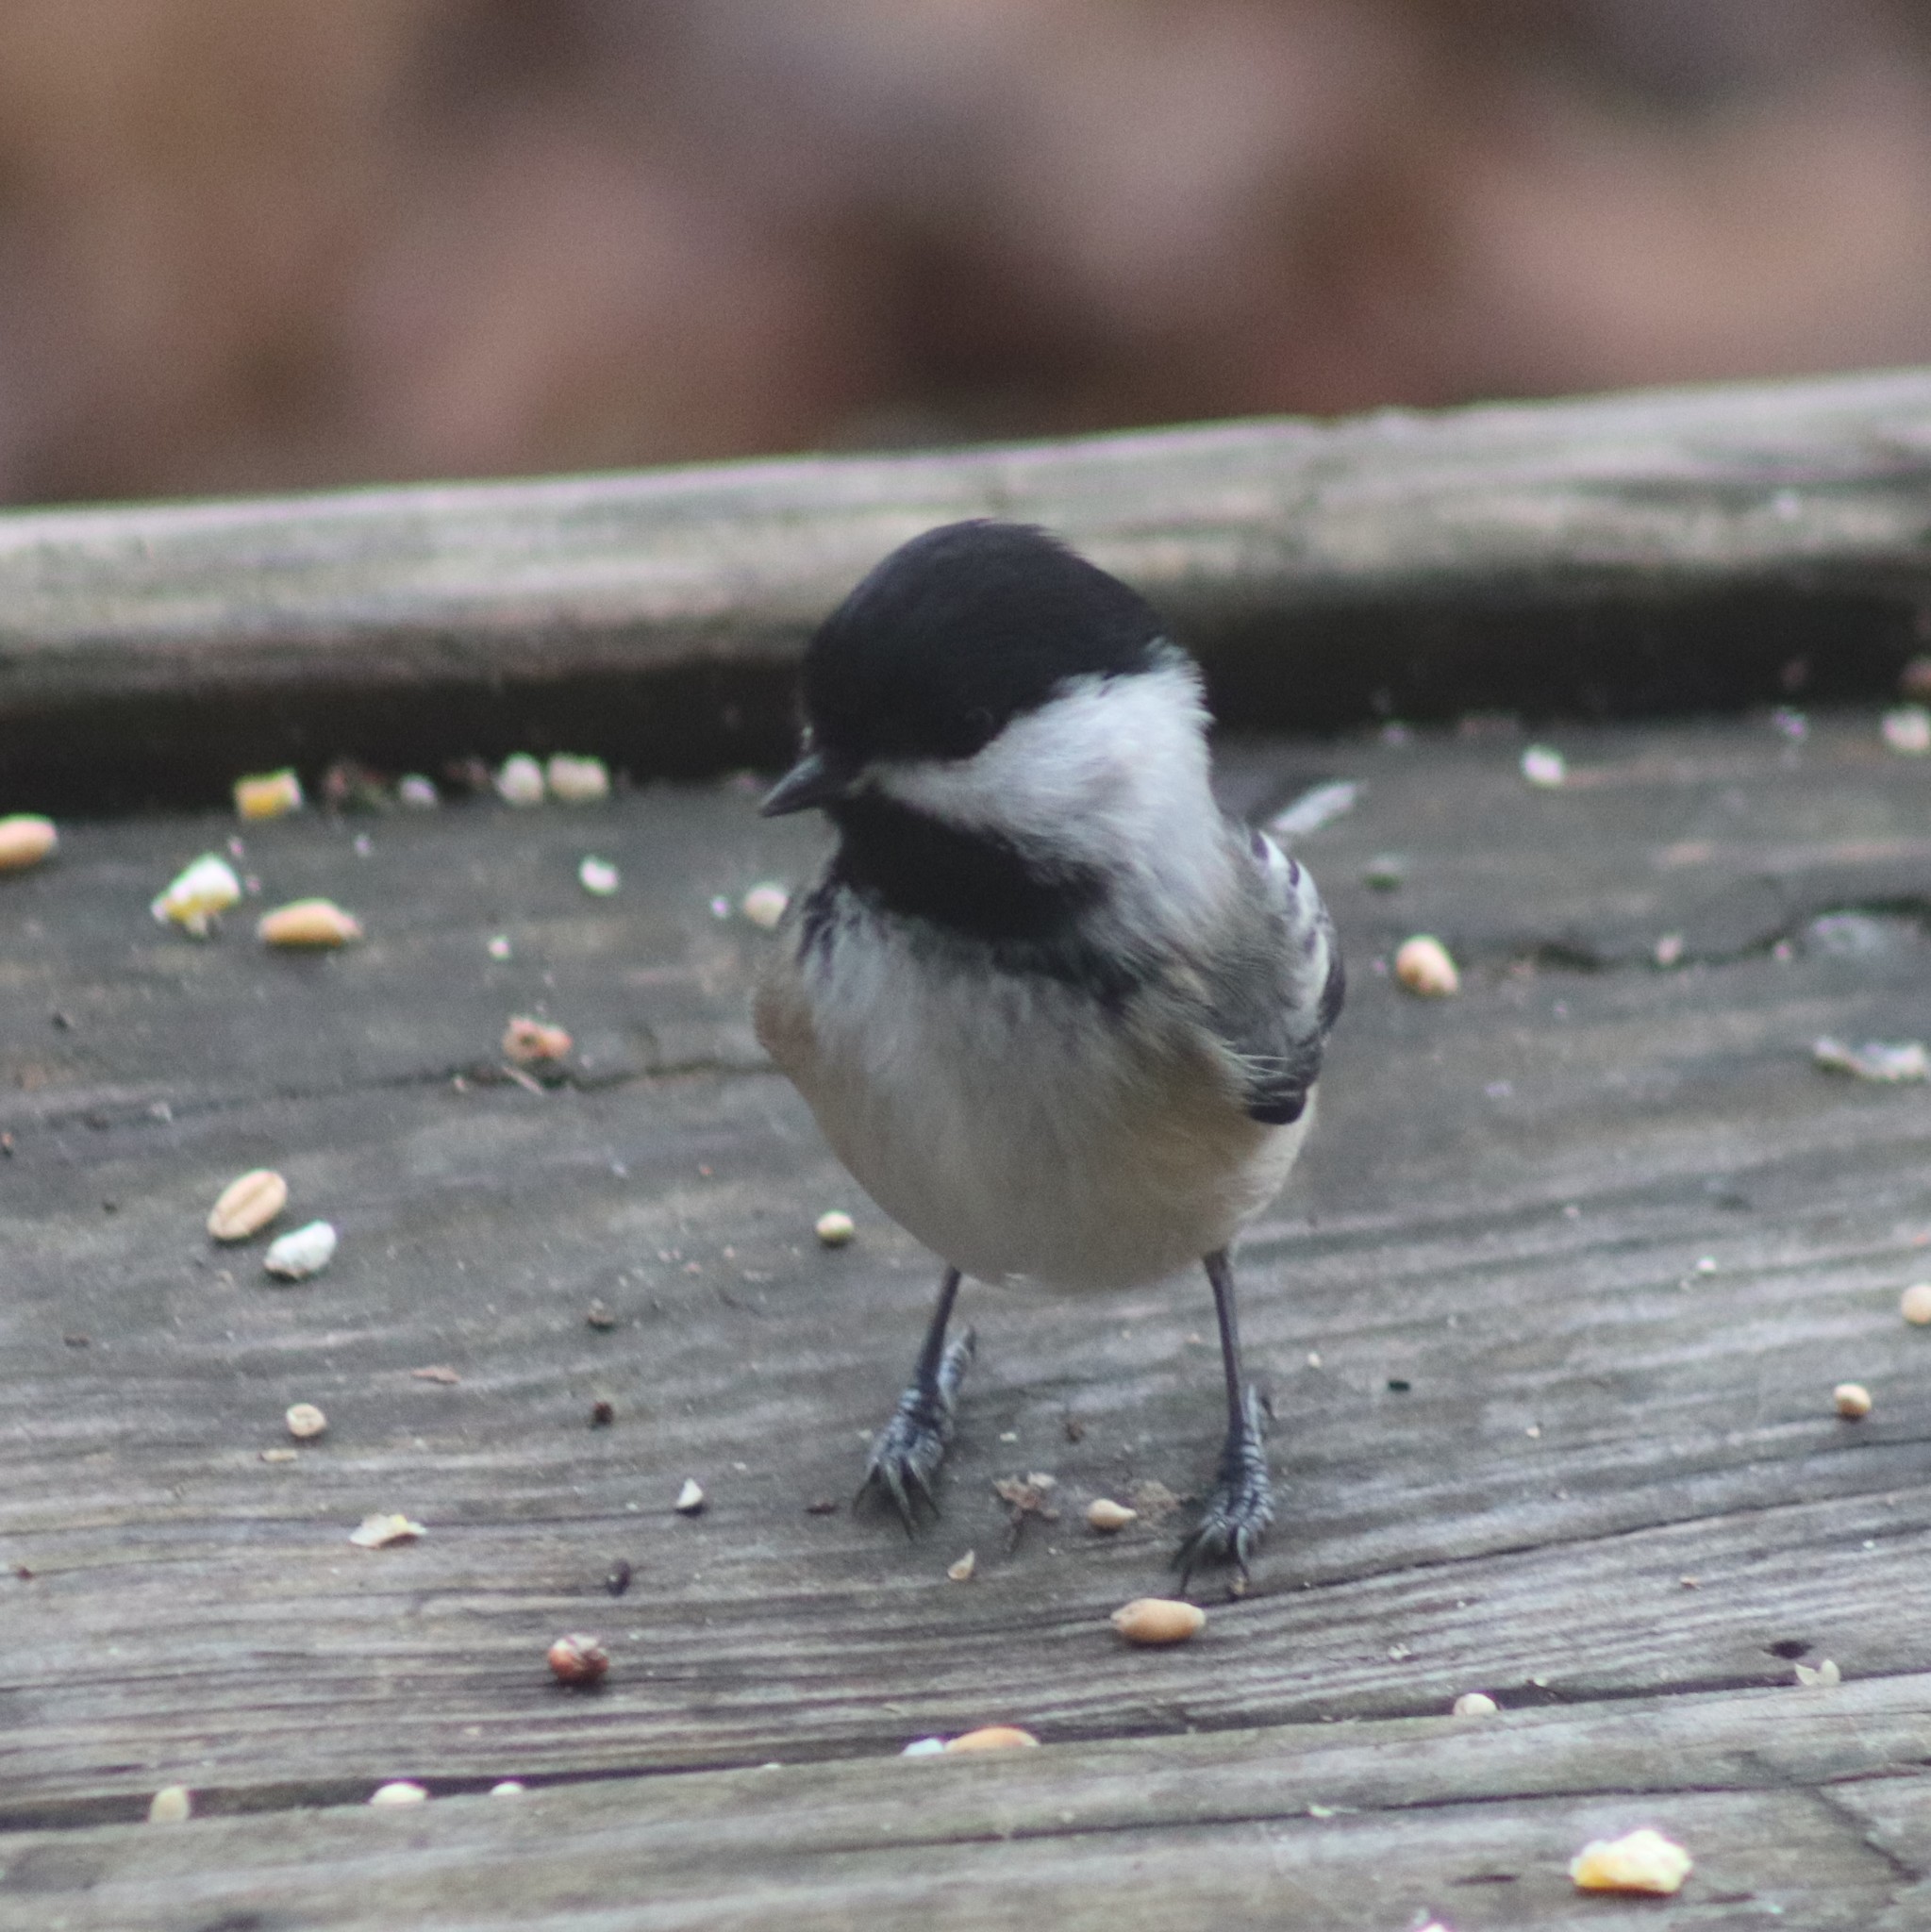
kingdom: Animalia
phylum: Chordata
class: Aves
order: Passeriformes
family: Paridae
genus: Poecile
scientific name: Poecile atricapillus
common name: Black-capped chickadee
